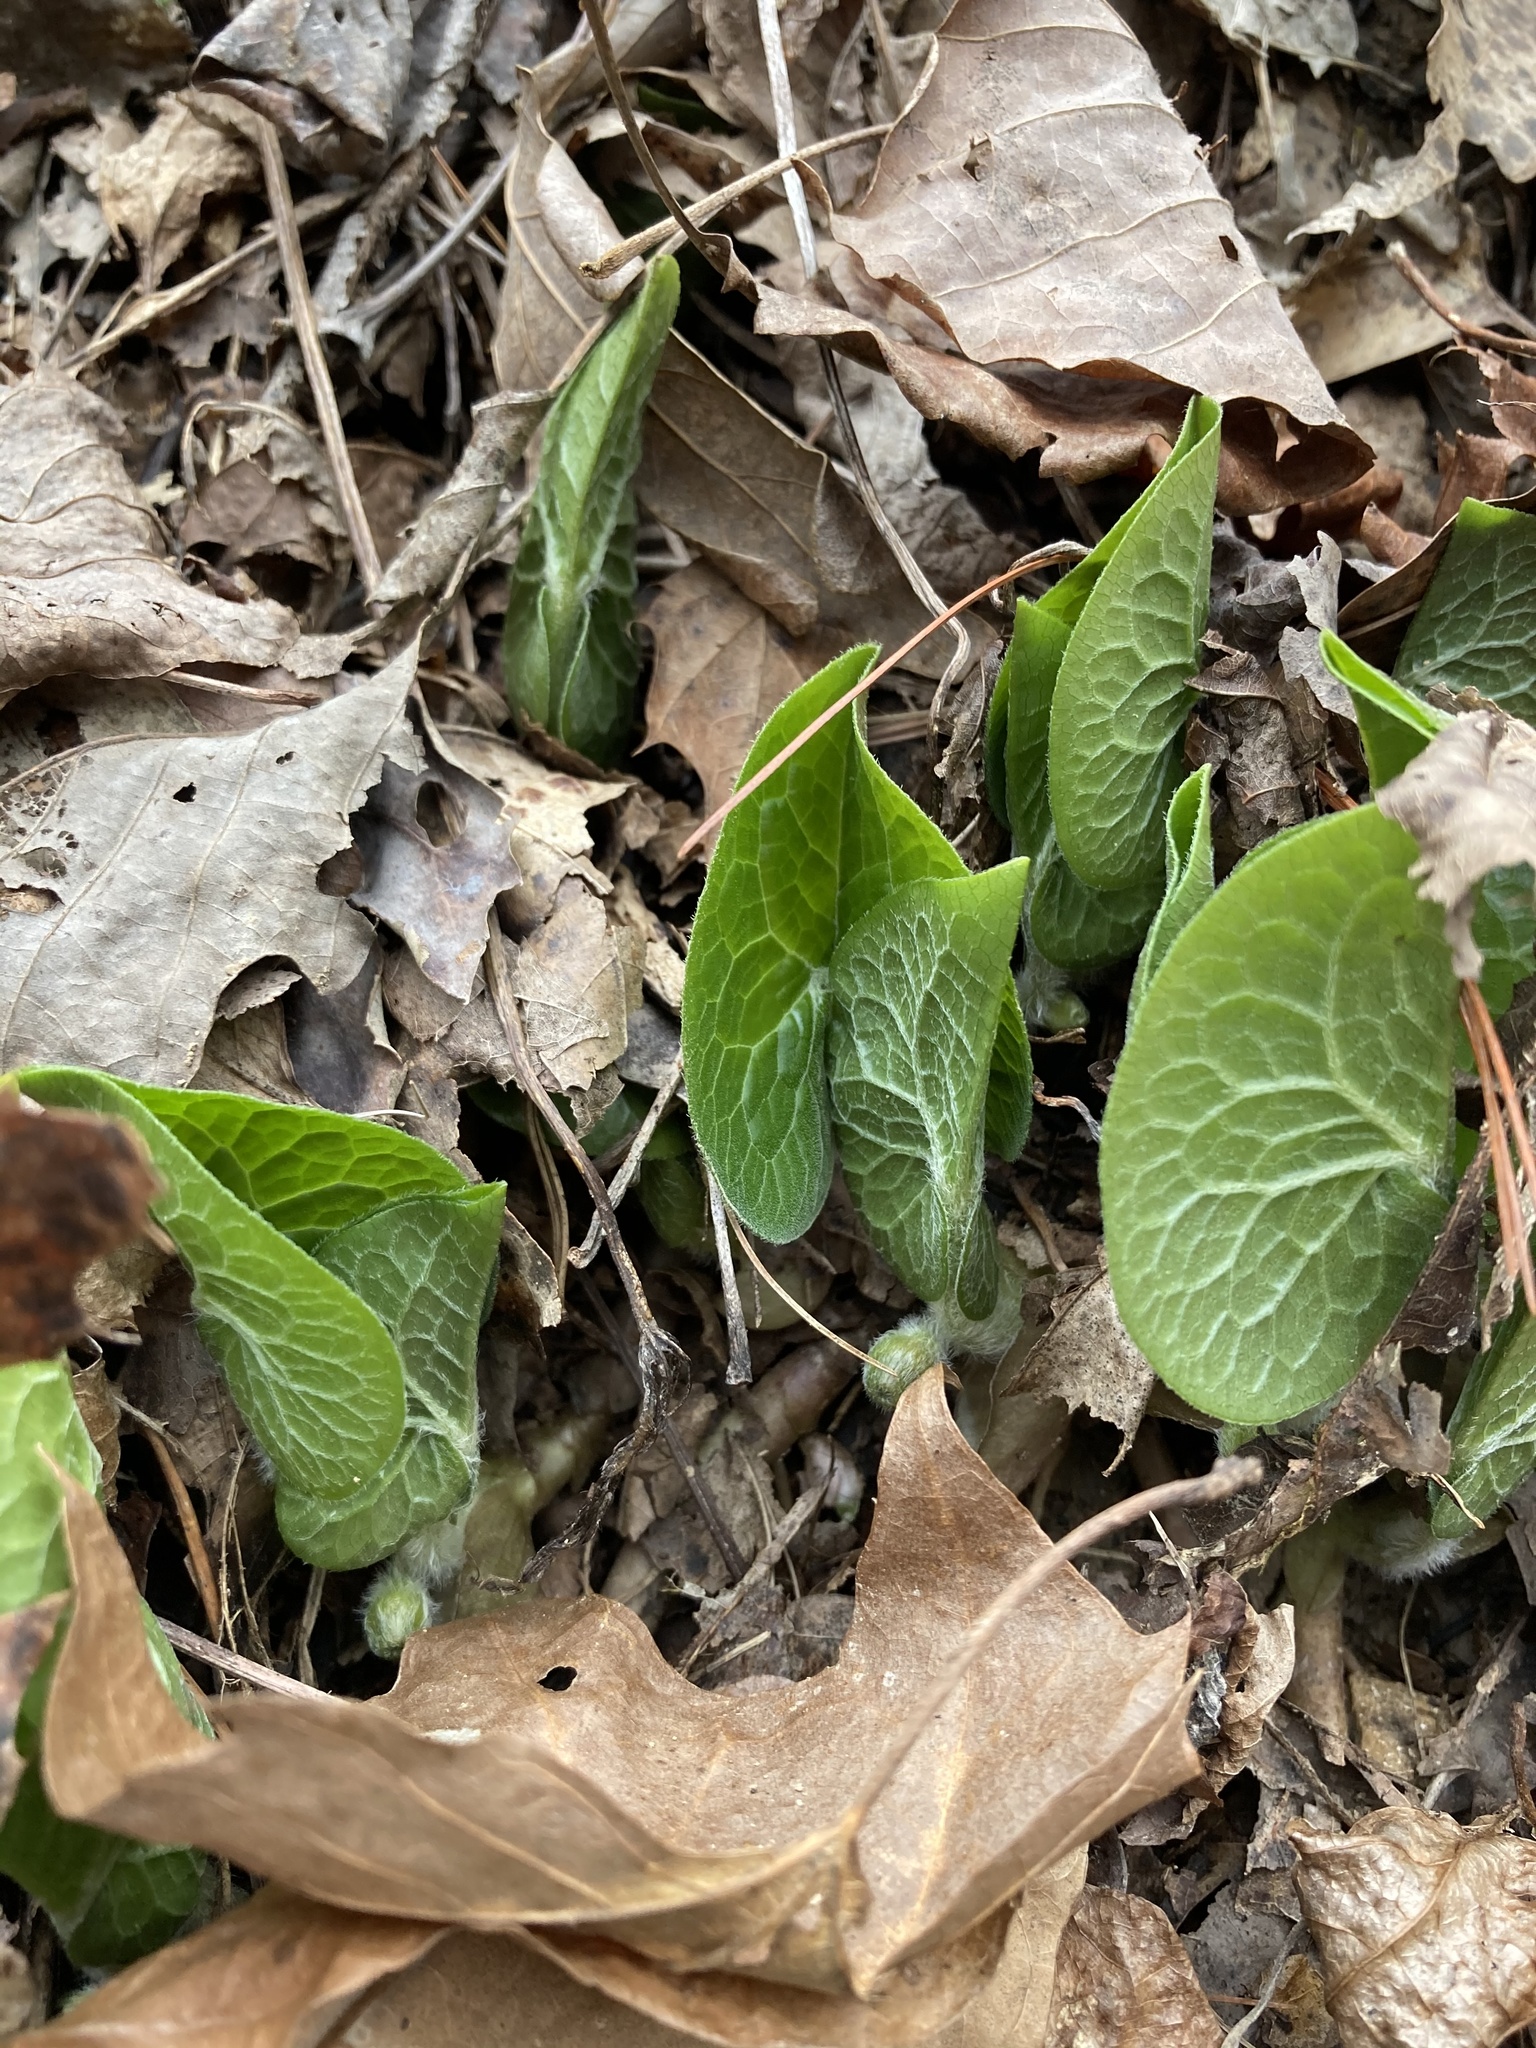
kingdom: Plantae
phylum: Tracheophyta
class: Magnoliopsida
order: Piperales
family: Aristolochiaceae
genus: Asarum
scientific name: Asarum canadense
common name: Wild ginger
